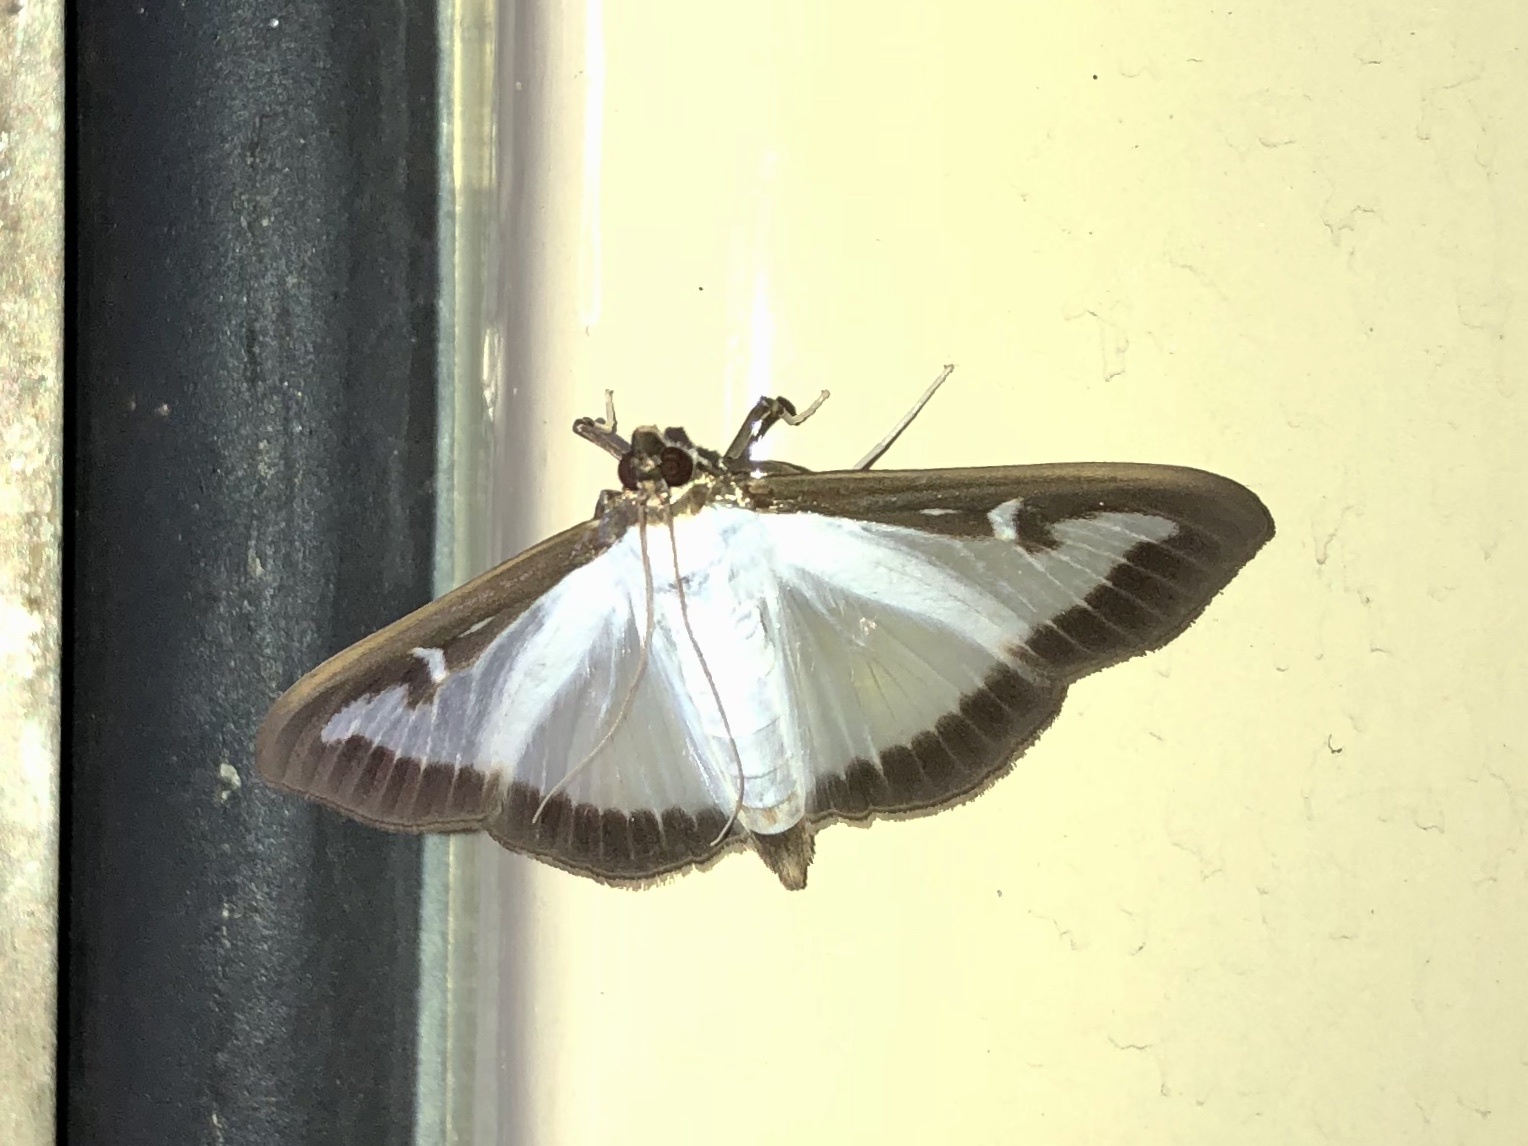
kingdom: Animalia
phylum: Arthropoda
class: Insecta
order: Lepidoptera
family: Crambidae
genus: Cydalima
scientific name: Cydalima perspectalis
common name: Box tree moth
